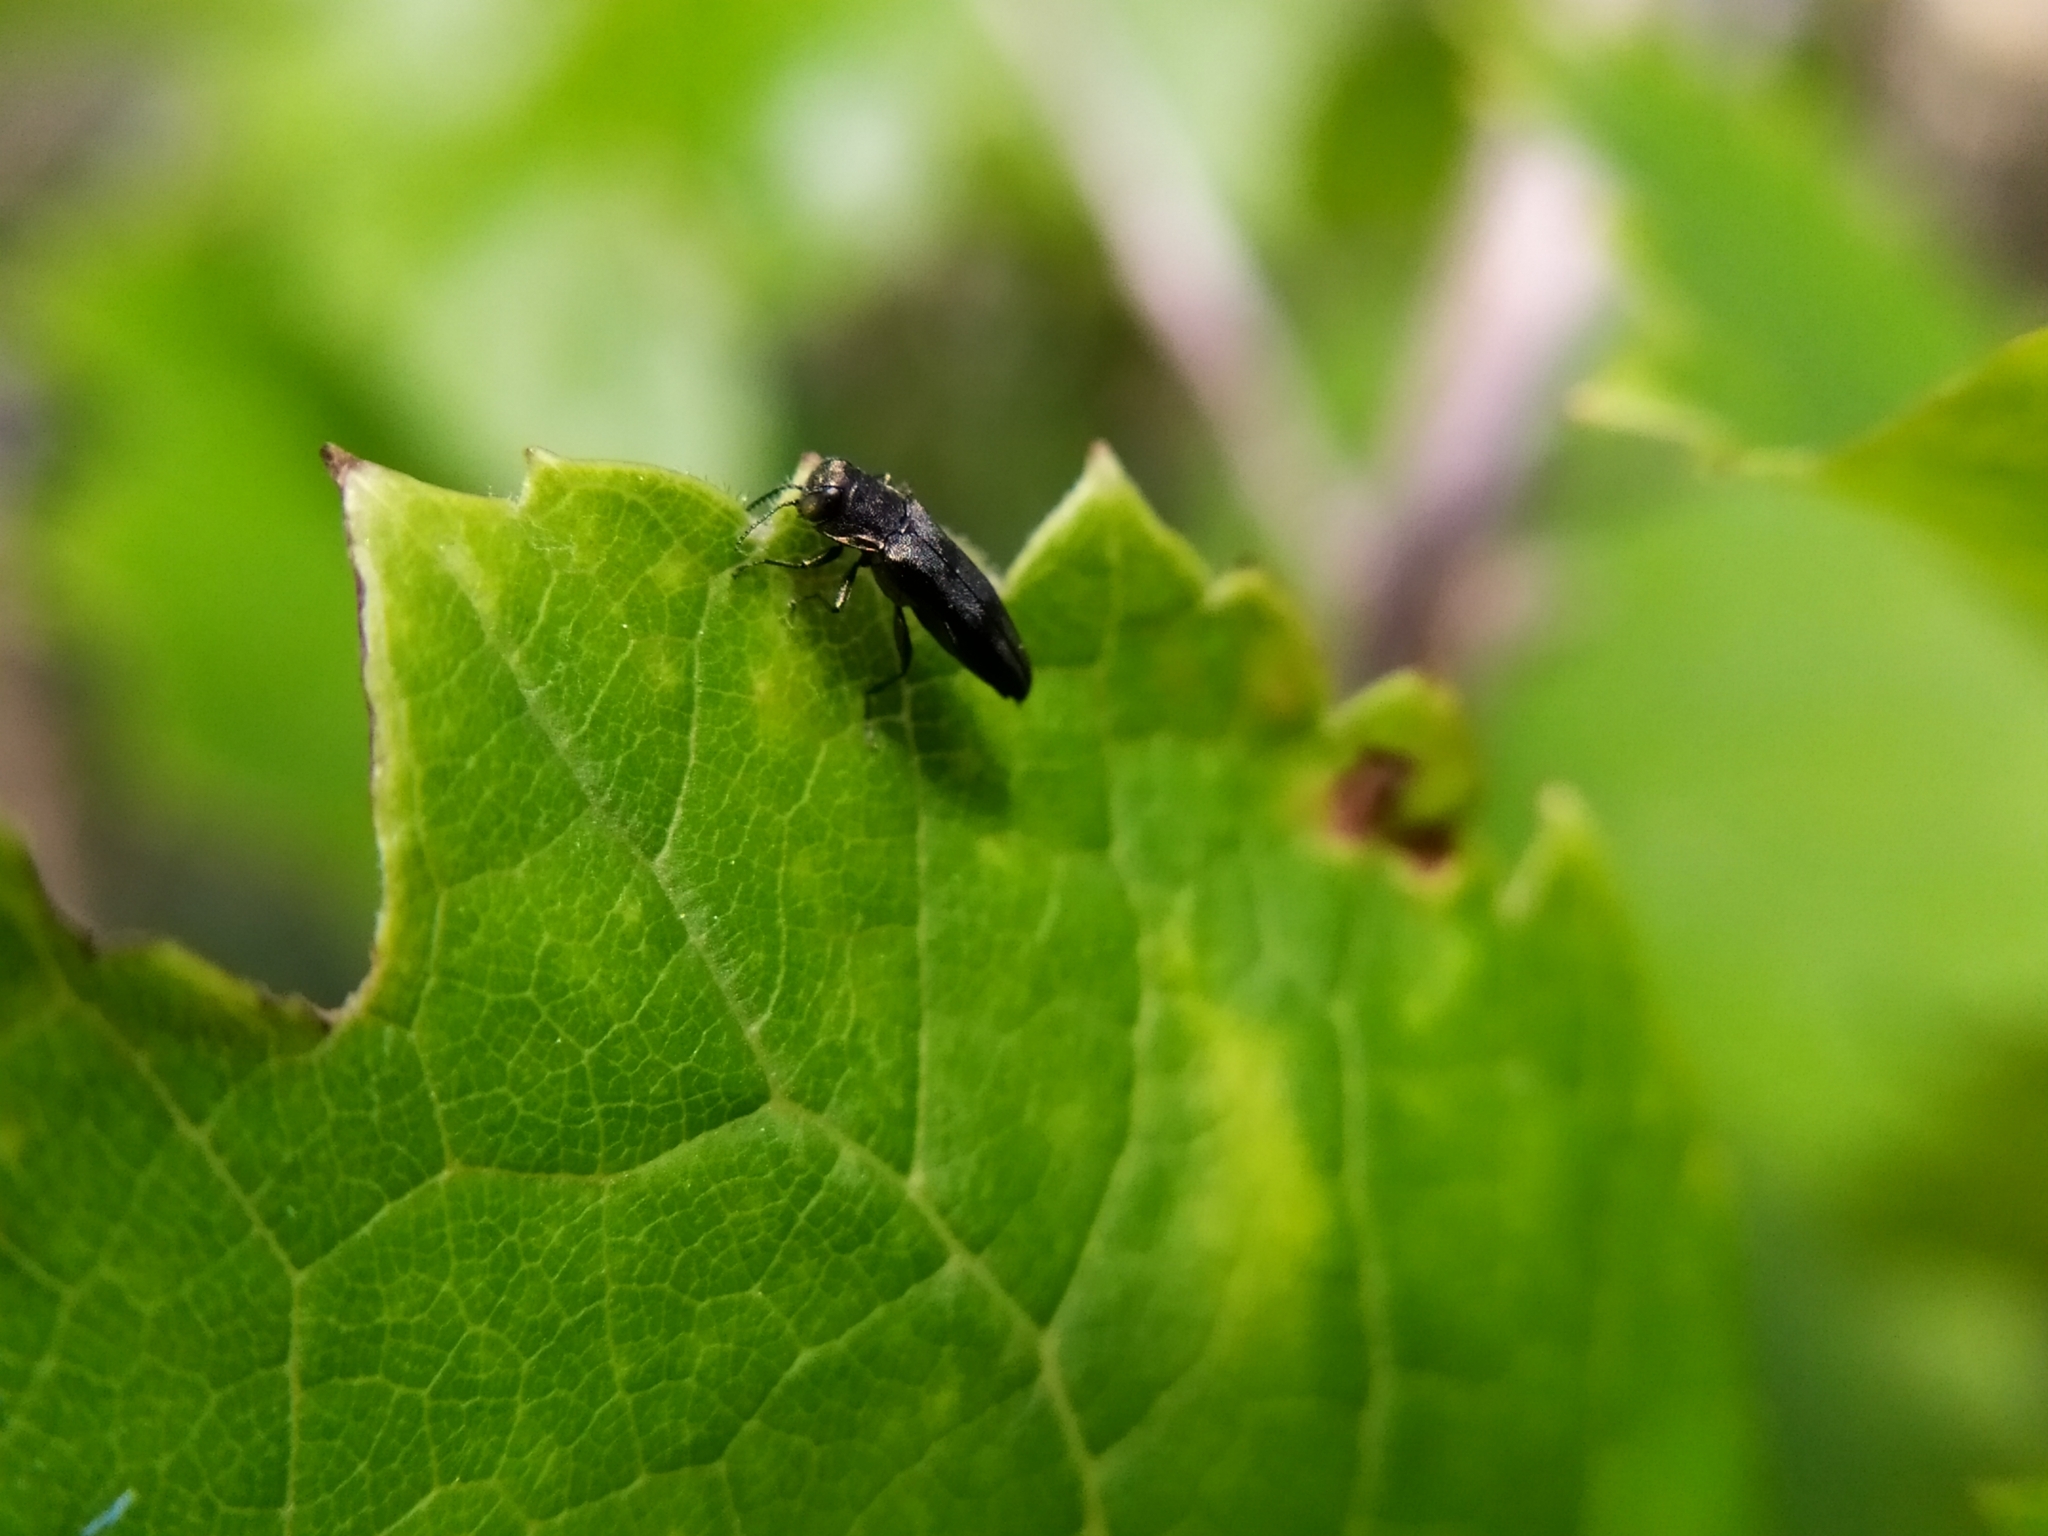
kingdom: Animalia
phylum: Arthropoda
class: Insecta
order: Coleoptera
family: Buprestidae
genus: Agrilus
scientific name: Agrilus derasofasciatus
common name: Metallic wood-boring beetle
